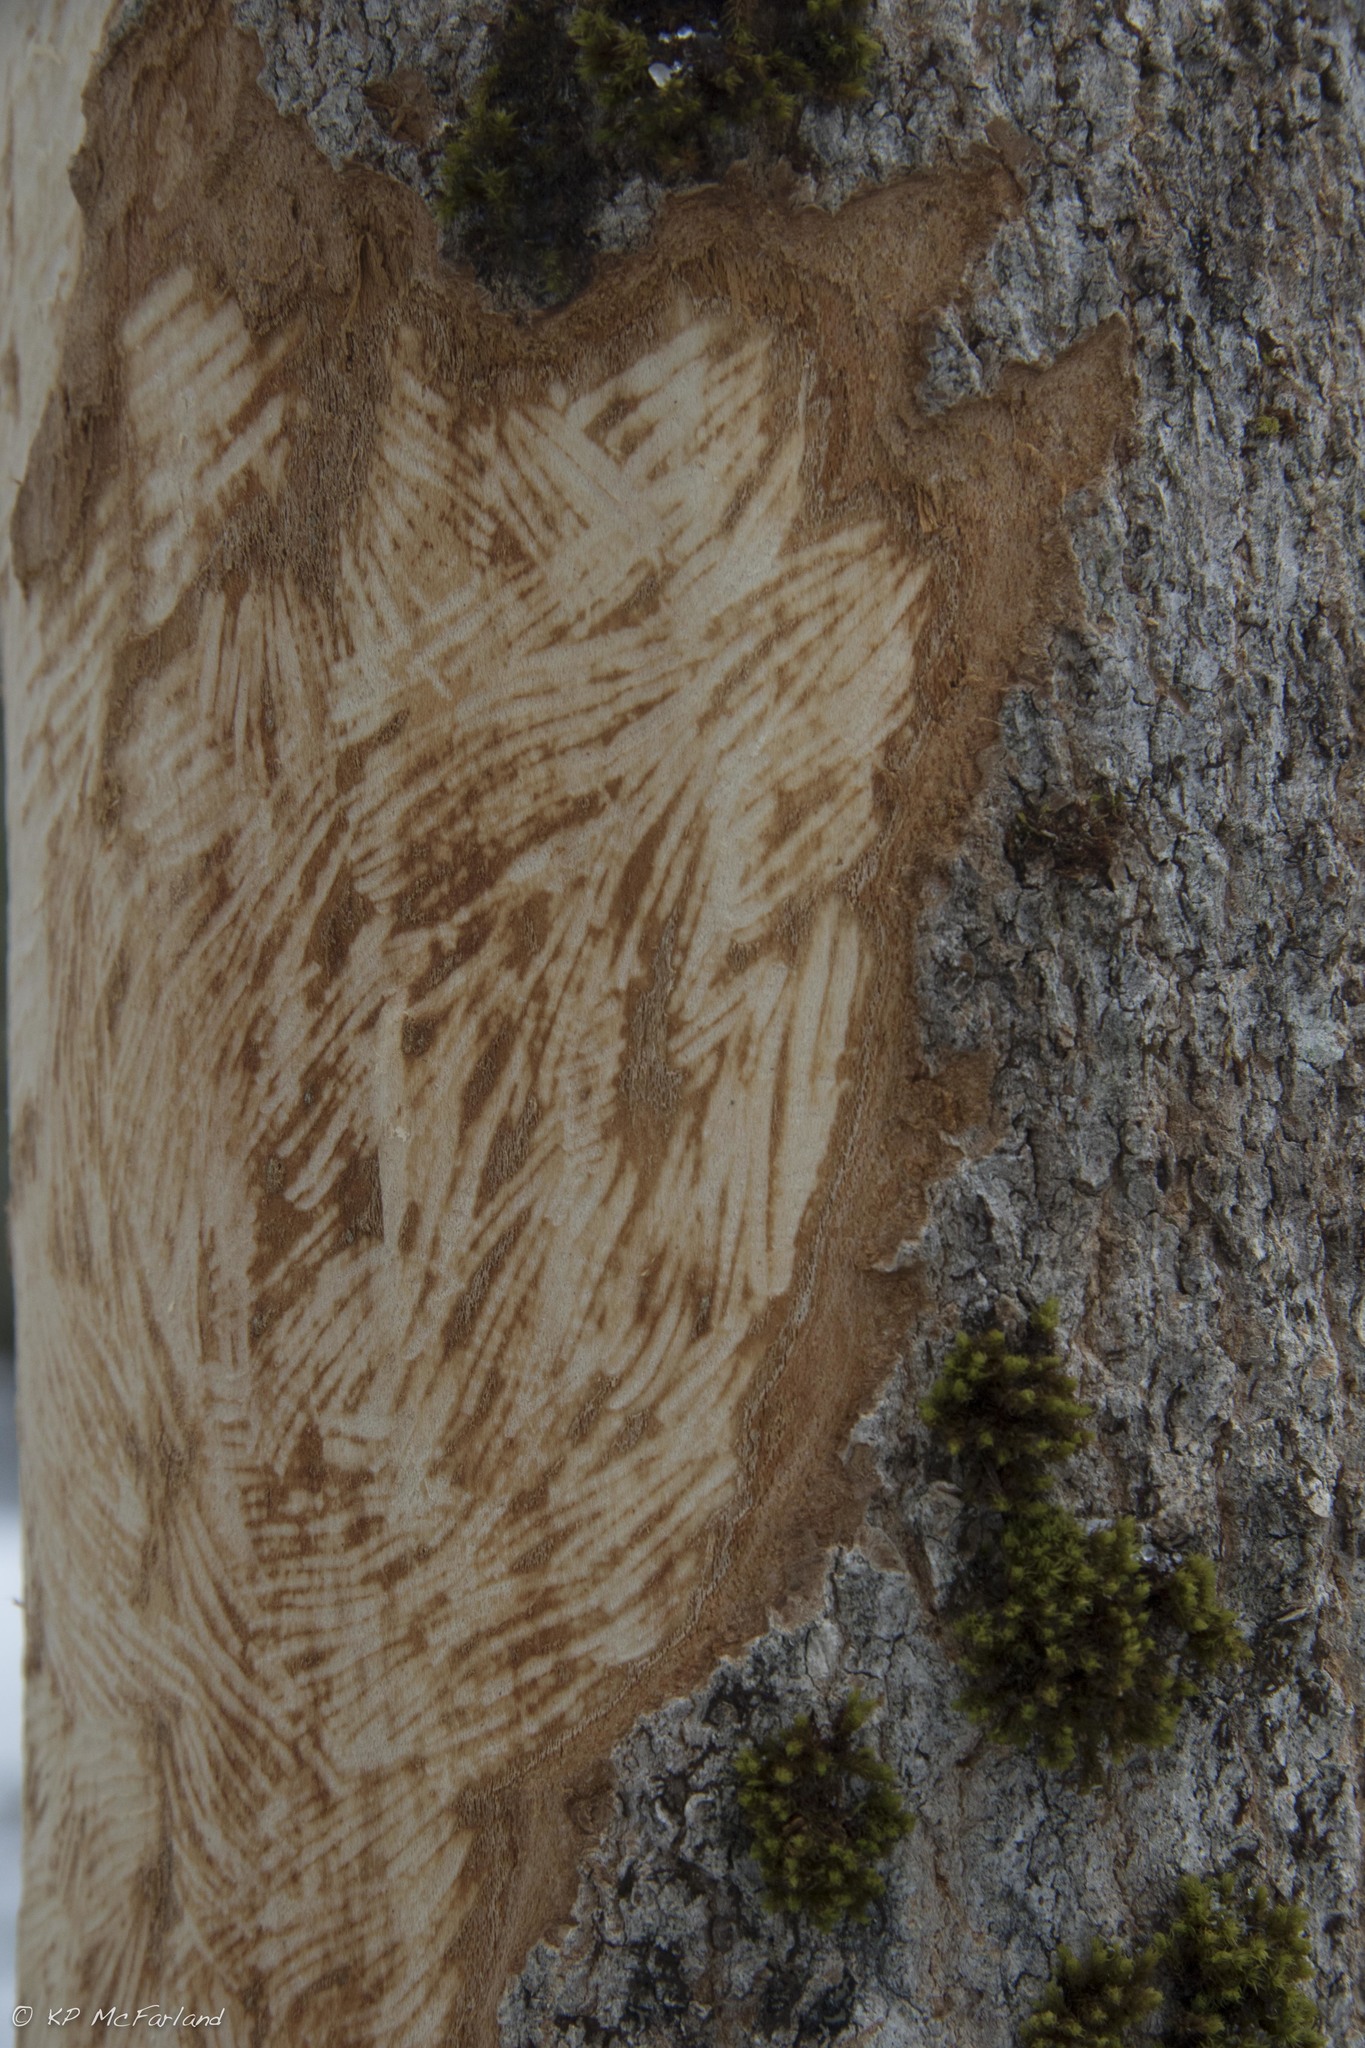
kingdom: Animalia
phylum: Chordata
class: Mammalia
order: Rodentia
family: Erethizontidae
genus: Erethizon
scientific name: Erethizon dorsatus
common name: North american porcupine
